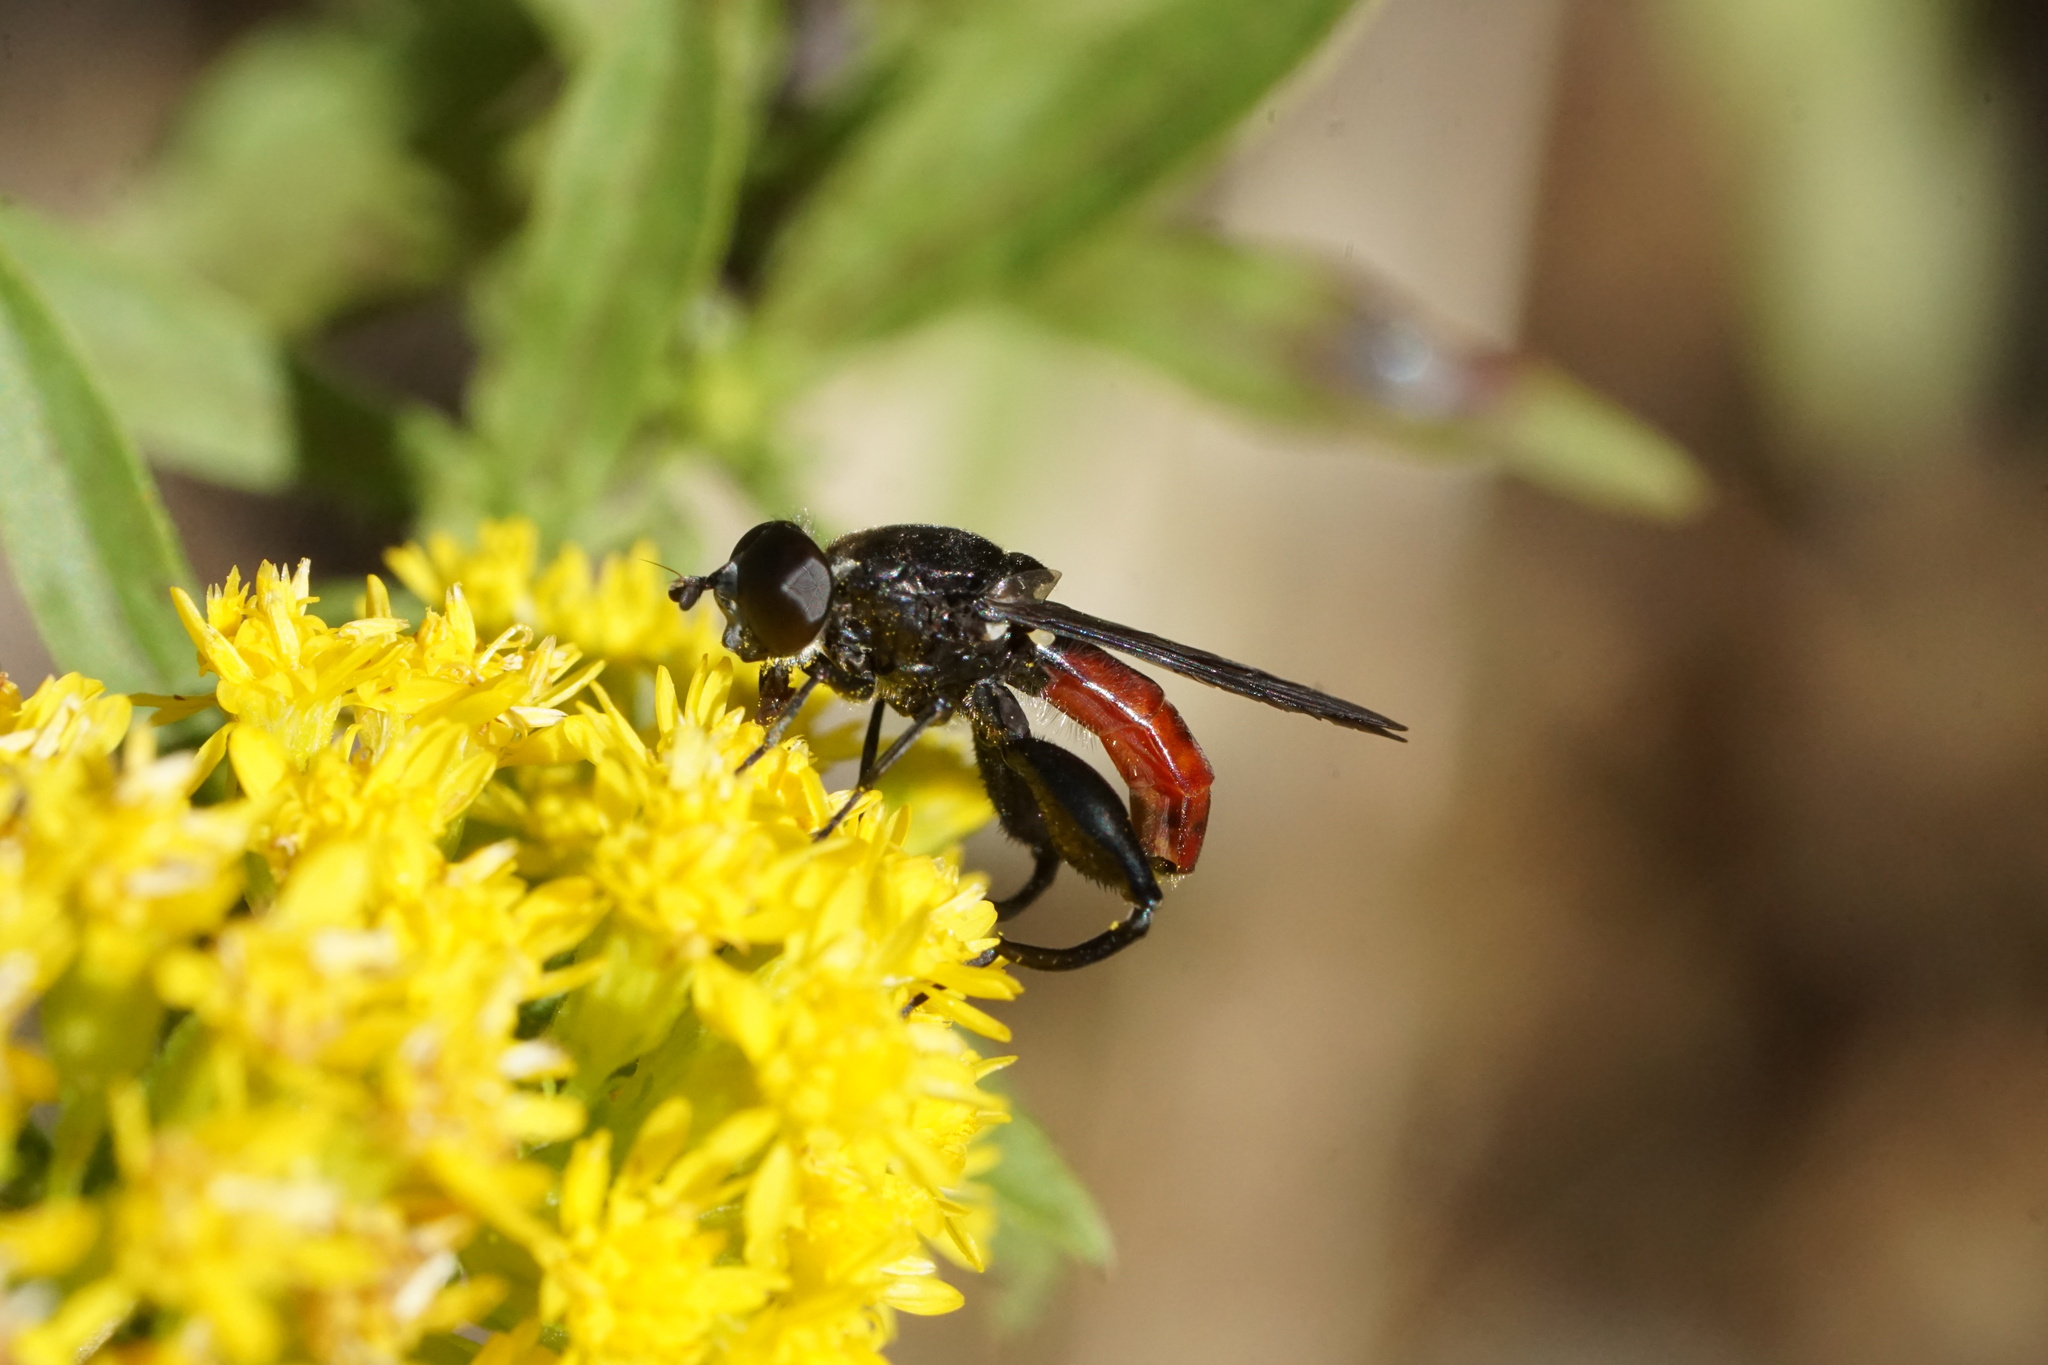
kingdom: Animalia
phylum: Arthropoda
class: Insecta
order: Diptera
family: Syrphidae
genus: Chalcosyrphus
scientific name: Chalcosyrphus piger
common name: Short-haired leafwalker
